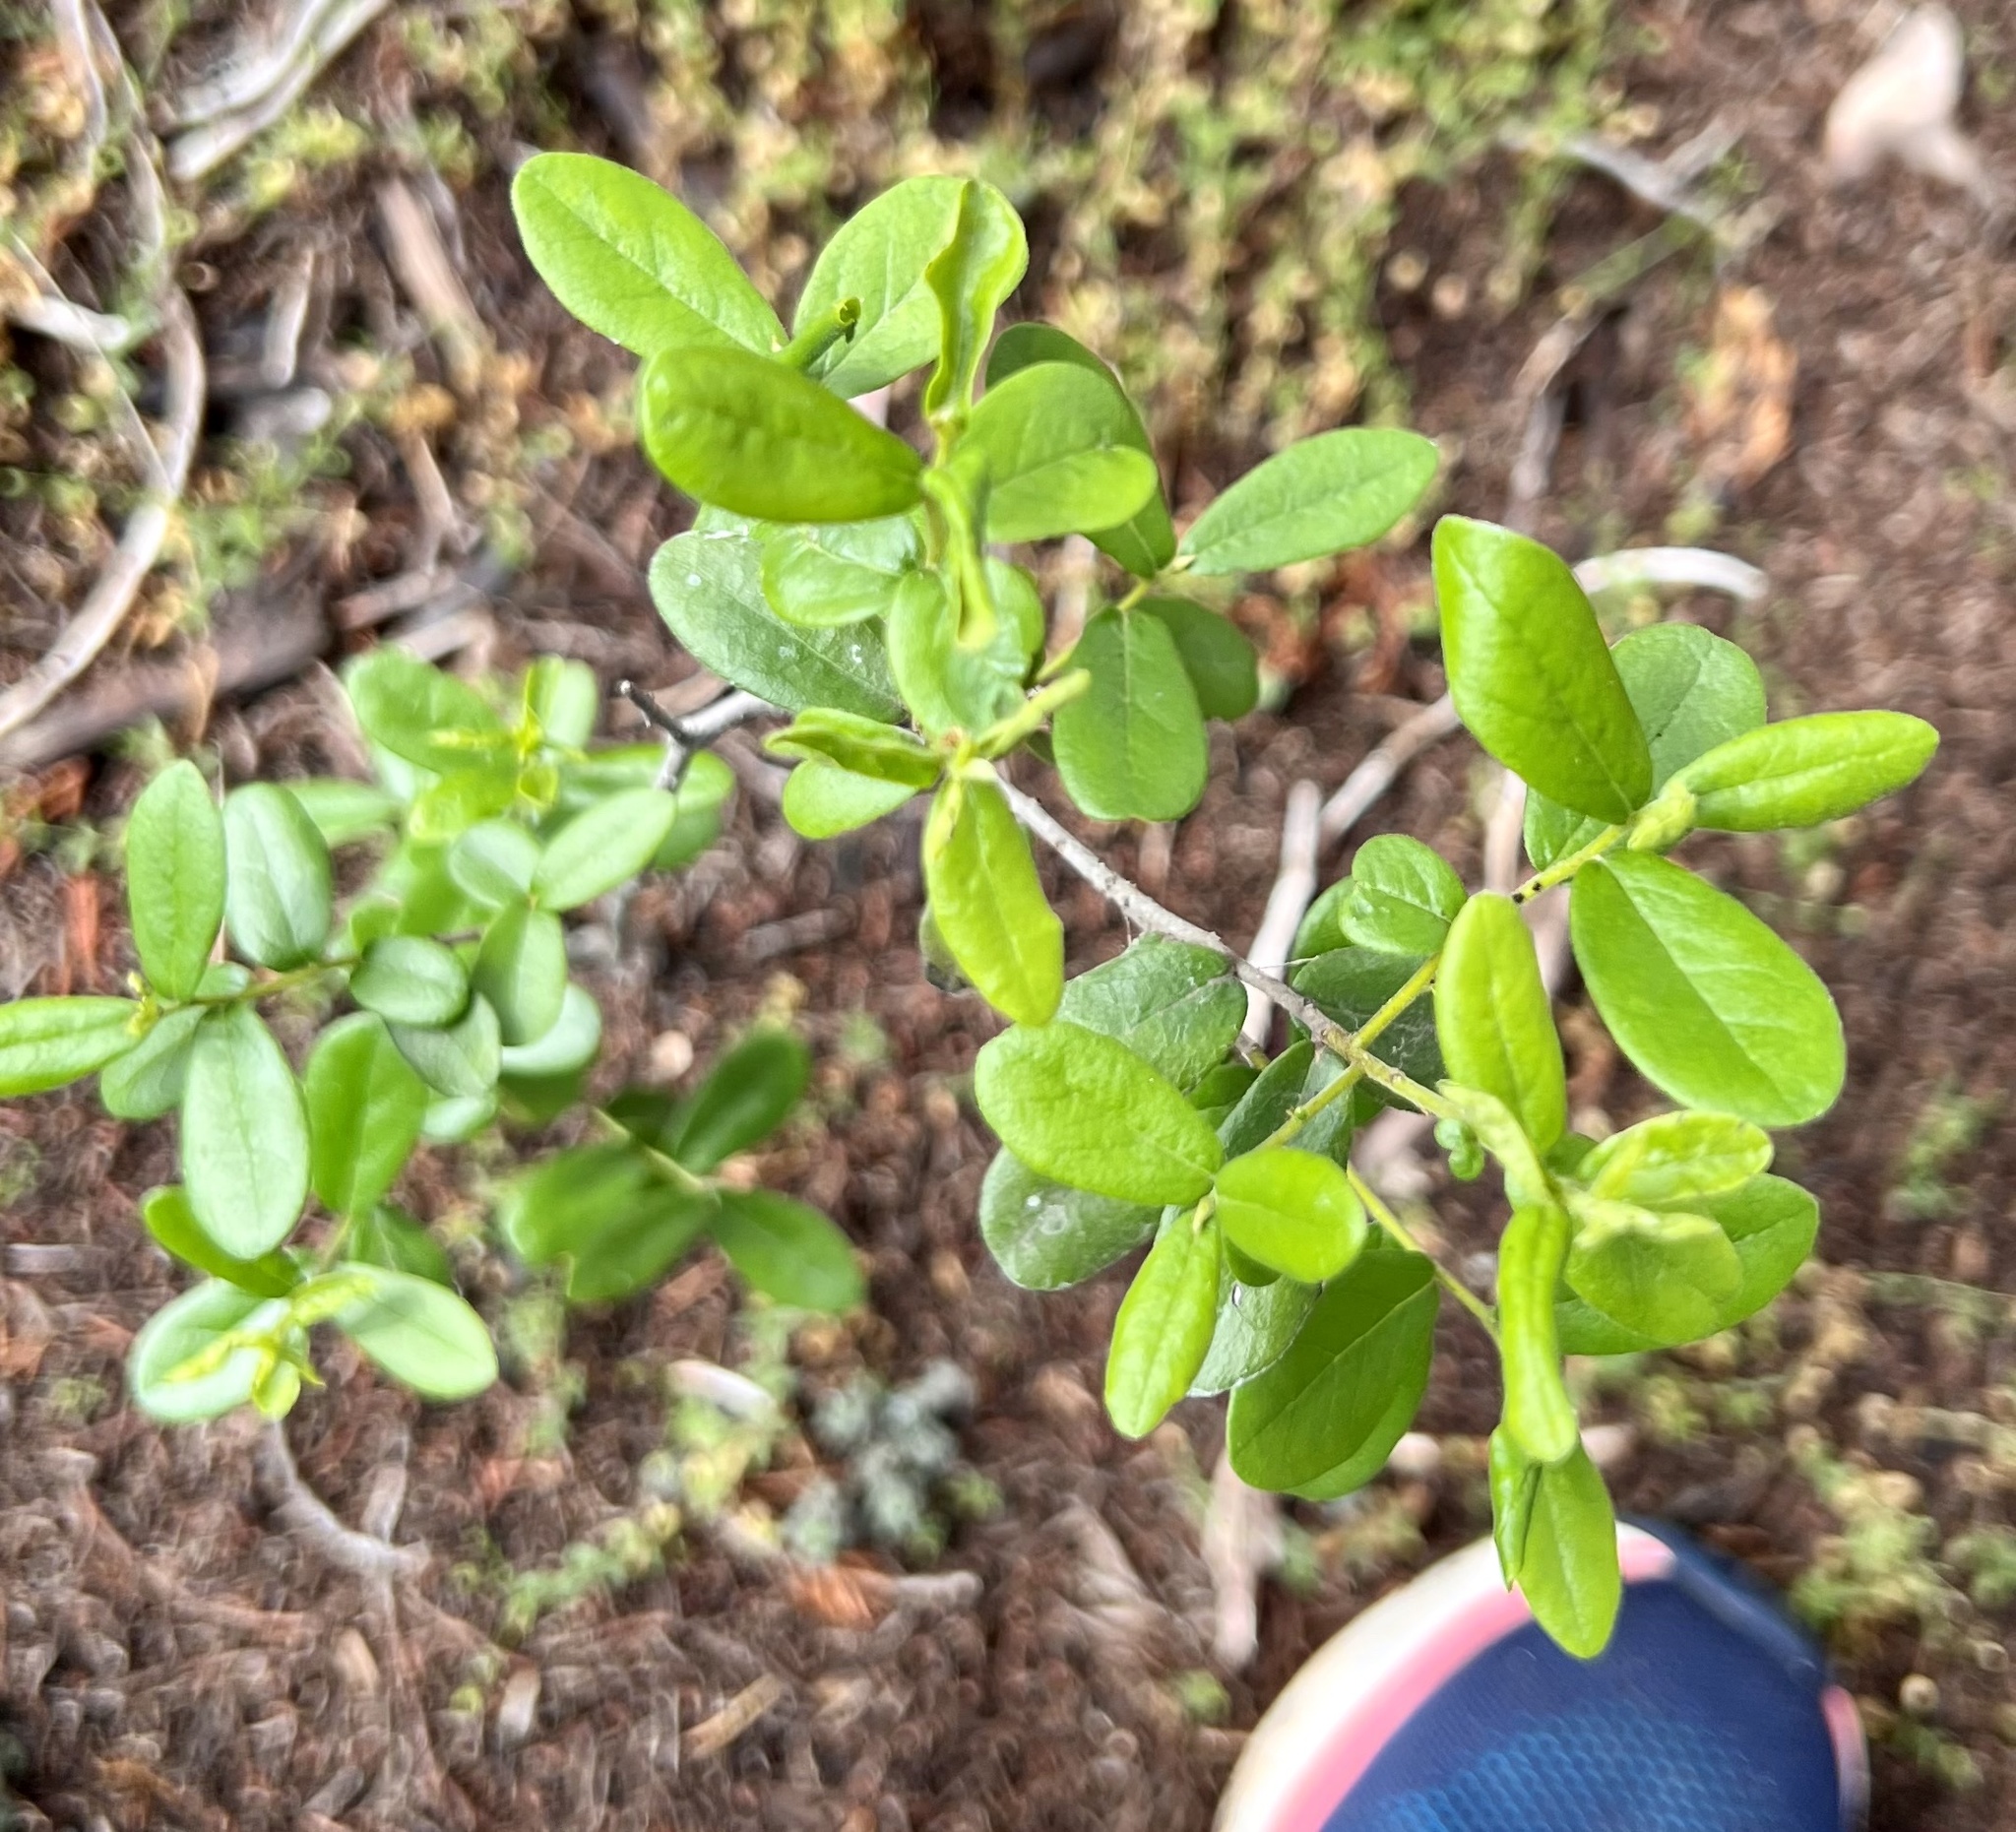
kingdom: Plantae
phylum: Tracheophyta
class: Magnoliopsida
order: Ericales
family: Ebenaceae
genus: Diospyros
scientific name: Diospyros texana
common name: Texas persimmon
